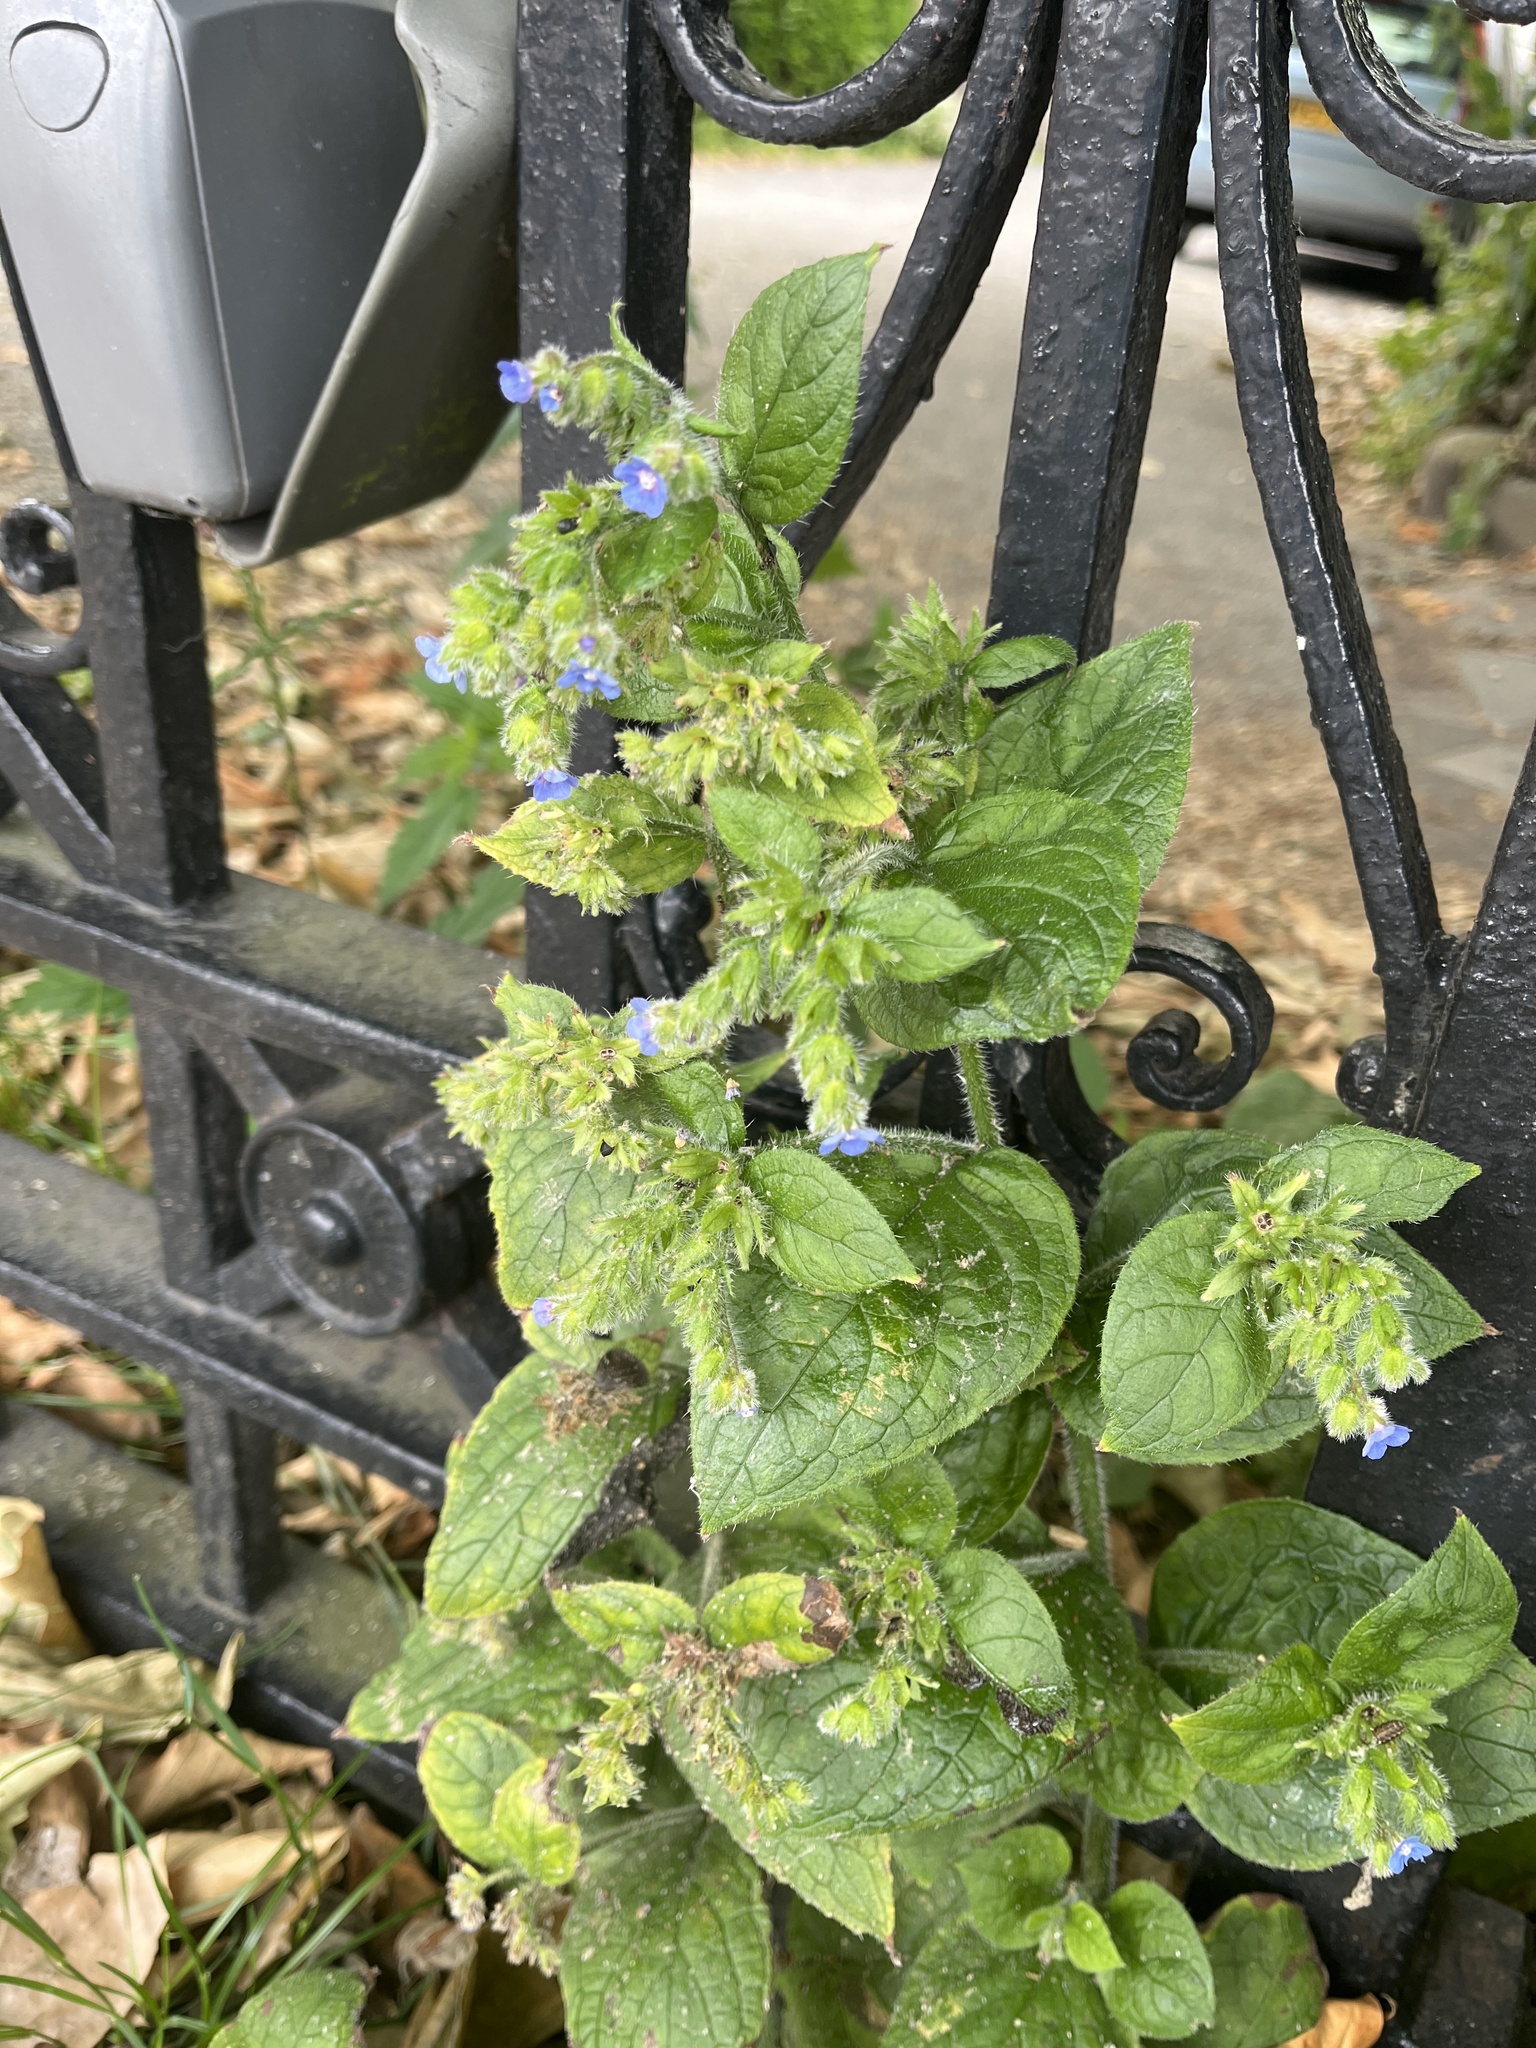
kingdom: Plantae
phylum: Tracheophyta
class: Magnoliopsida
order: Boraginales
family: Boraginaceae
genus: Pentaglottis
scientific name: Pentaglottis sempervirens
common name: Green alkanet
